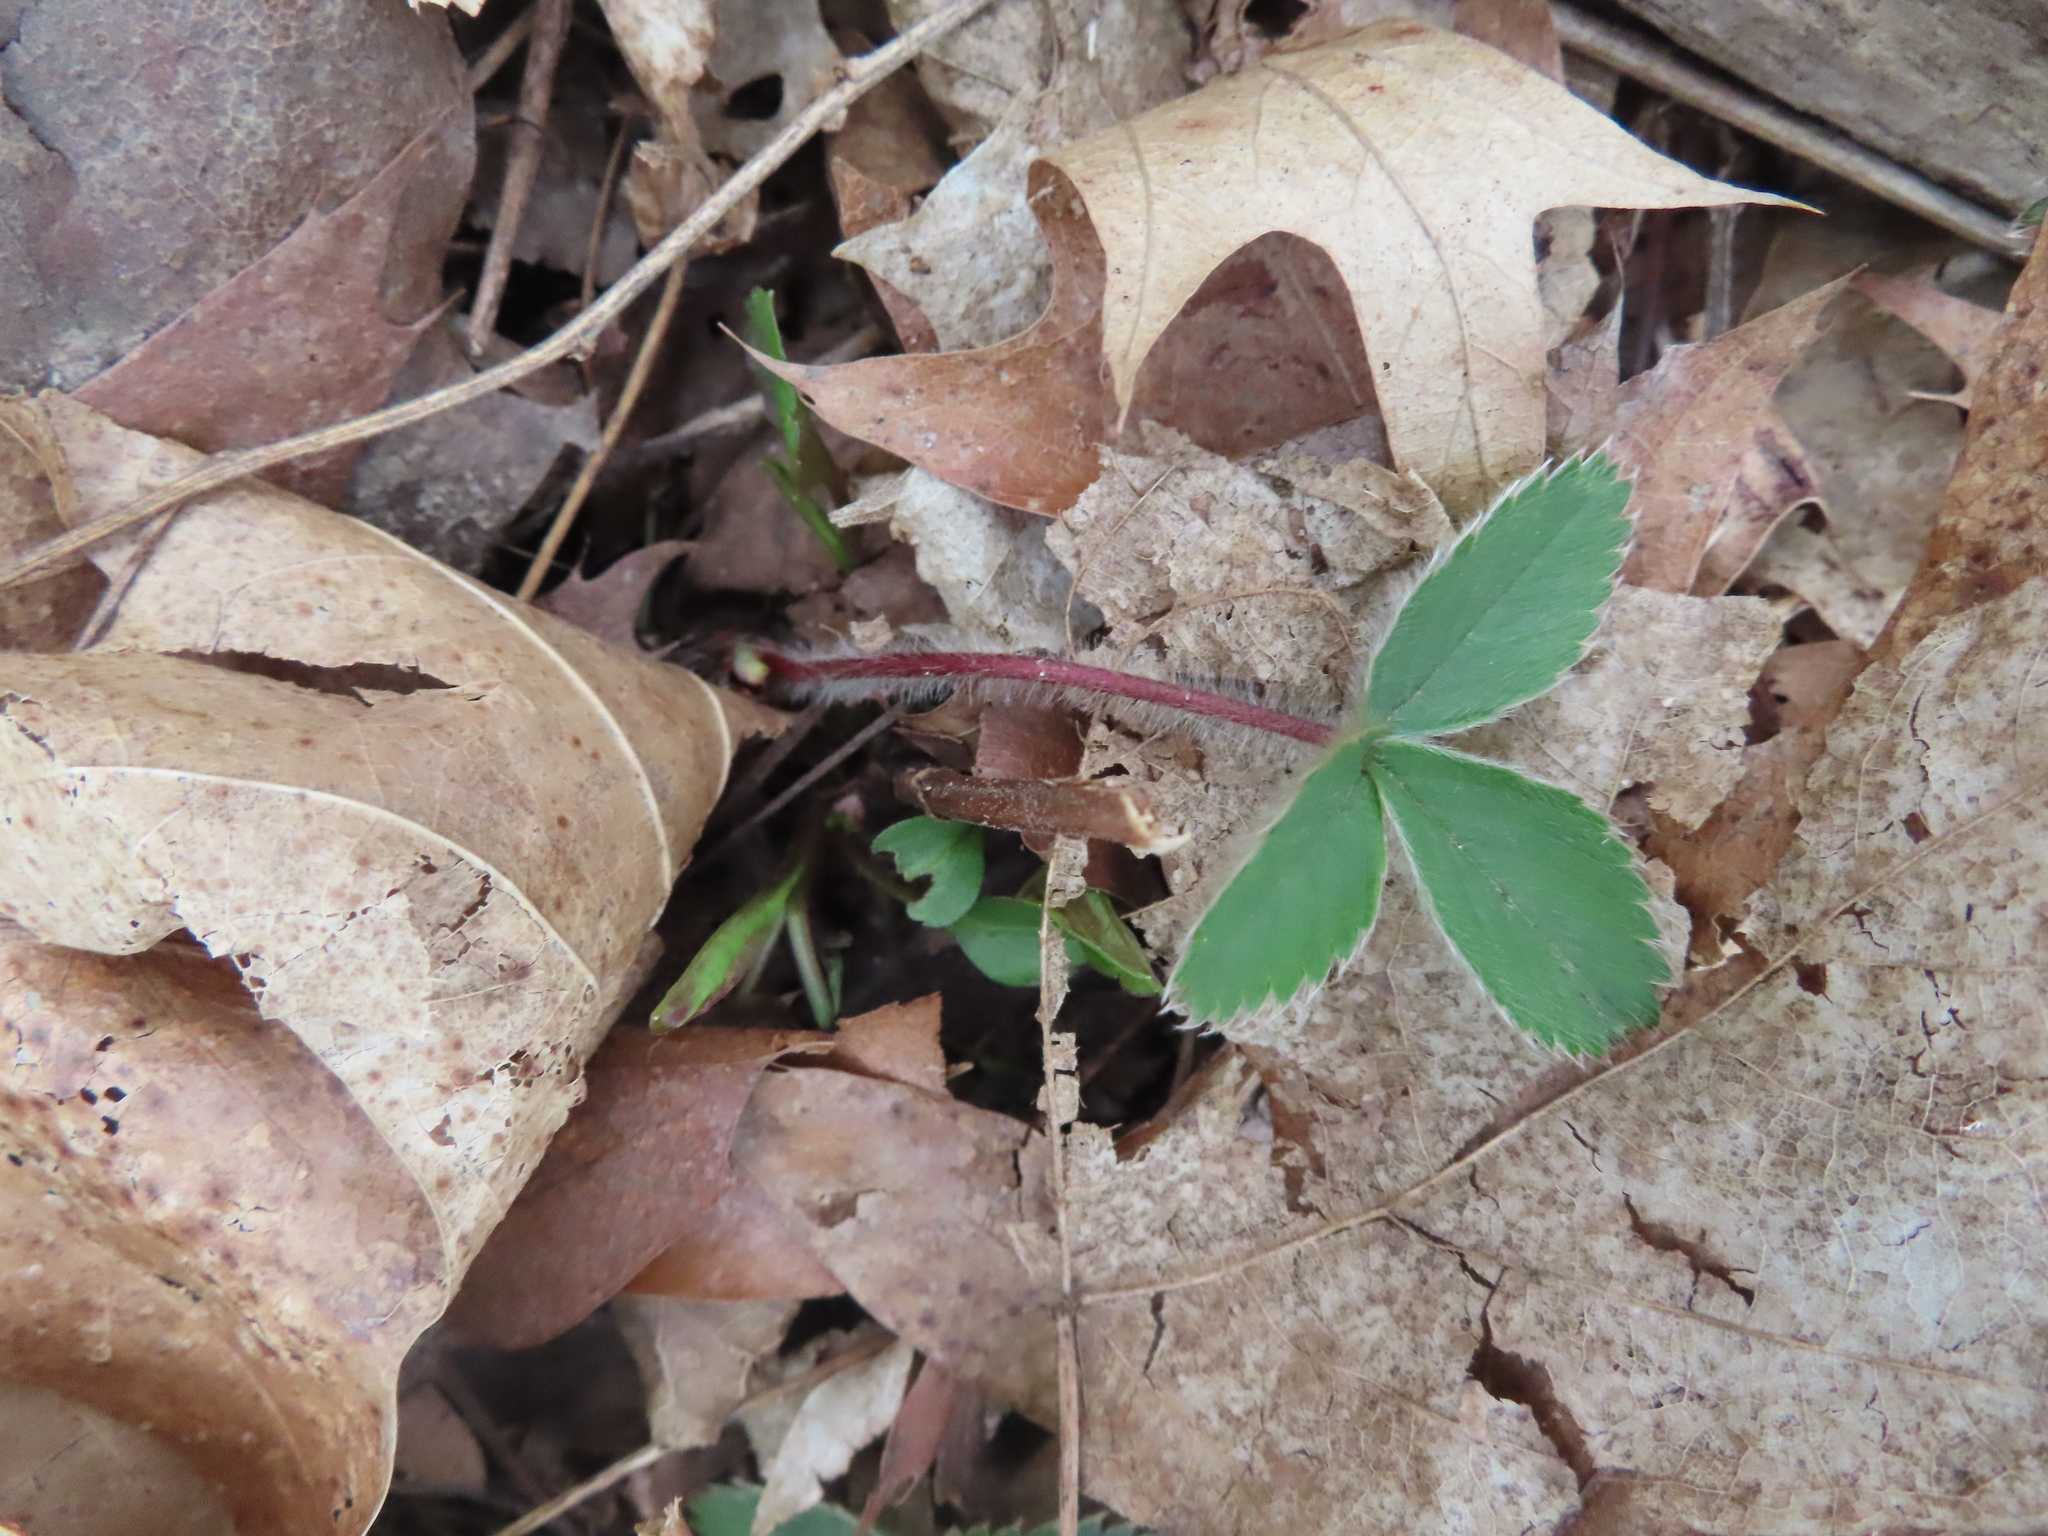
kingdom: Plantae
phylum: Tracheophyta
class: Magnoliopsida
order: Rosales
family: Rosaceae
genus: Fragaria
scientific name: Fragaria virginiana
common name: Thickleaved wild strawberry
